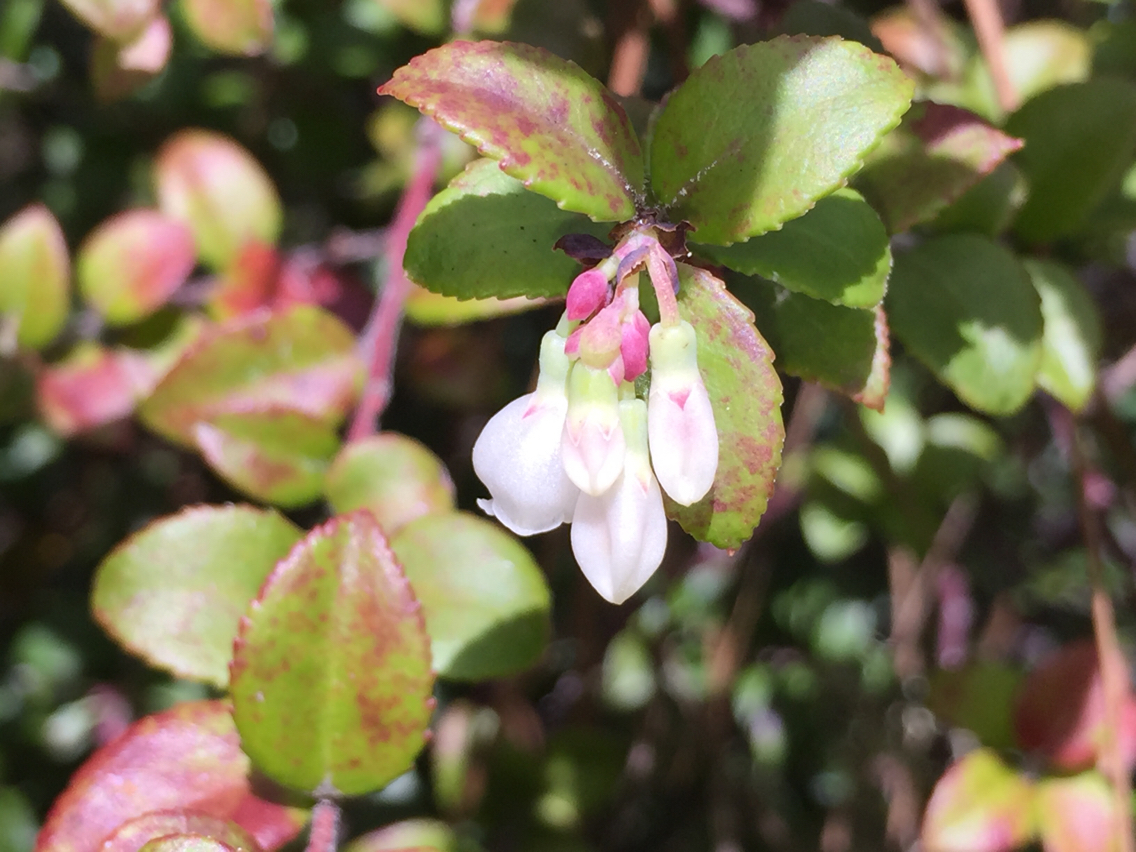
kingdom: Plantae
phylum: Tracheophyta
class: Magnoliopsida
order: Ericales
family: Ericaceae
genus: Vaccinium
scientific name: Vaccinium ovatum
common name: California-huckleberry
